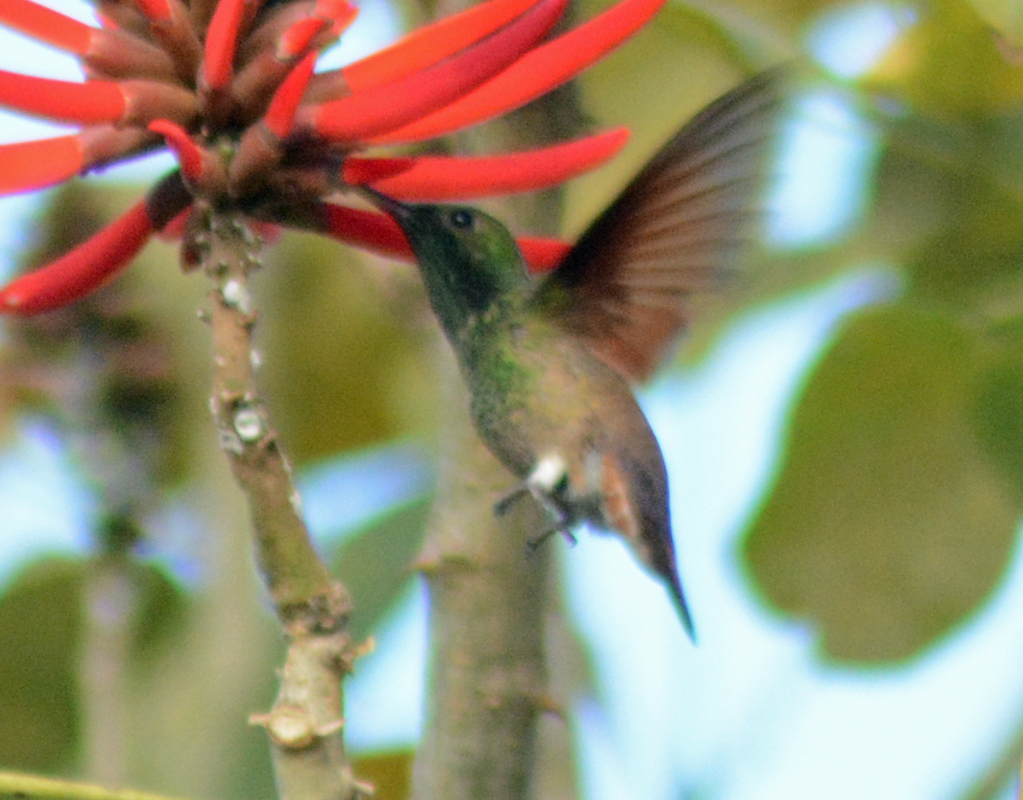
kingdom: Animalia
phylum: Chordata
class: Aves
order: Apodiformes
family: Trochilidae
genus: Saucerottia
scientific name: Saucerottia beryllina
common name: Berylline hummingbird
